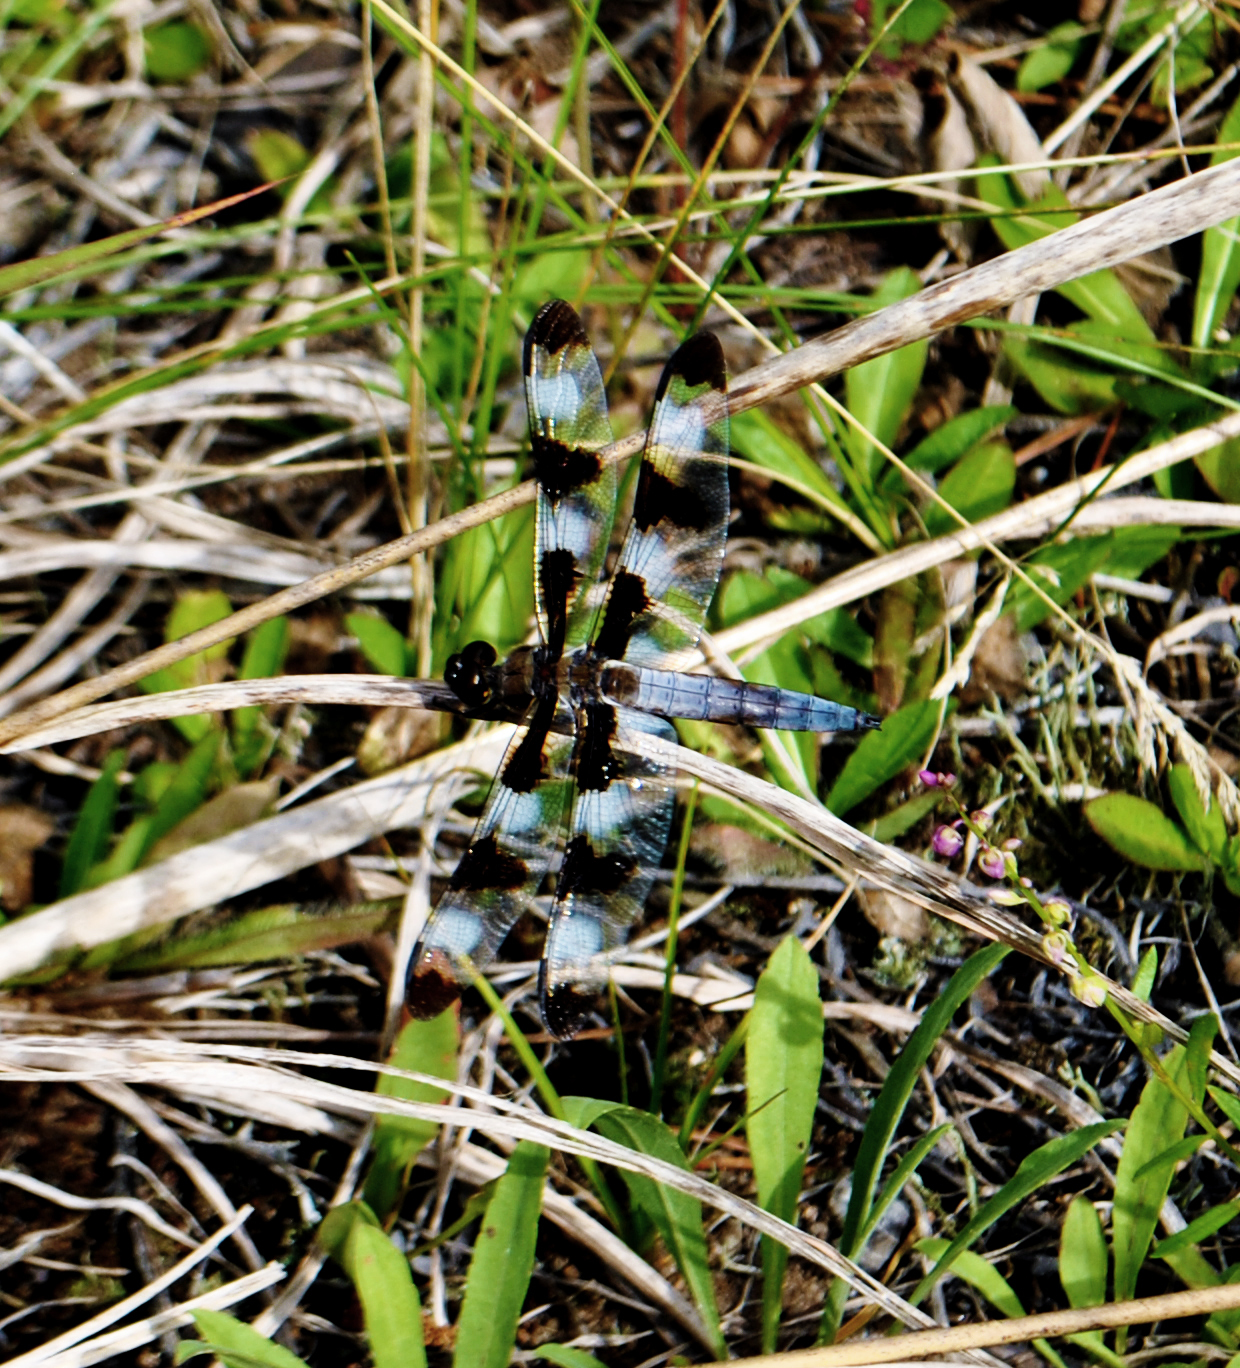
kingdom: Animalia
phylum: Arthropoda
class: Insecta
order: Odonata
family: Libellulidae
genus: Libellula
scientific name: Libellula pulchella
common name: Twelve-spotted skimmer
